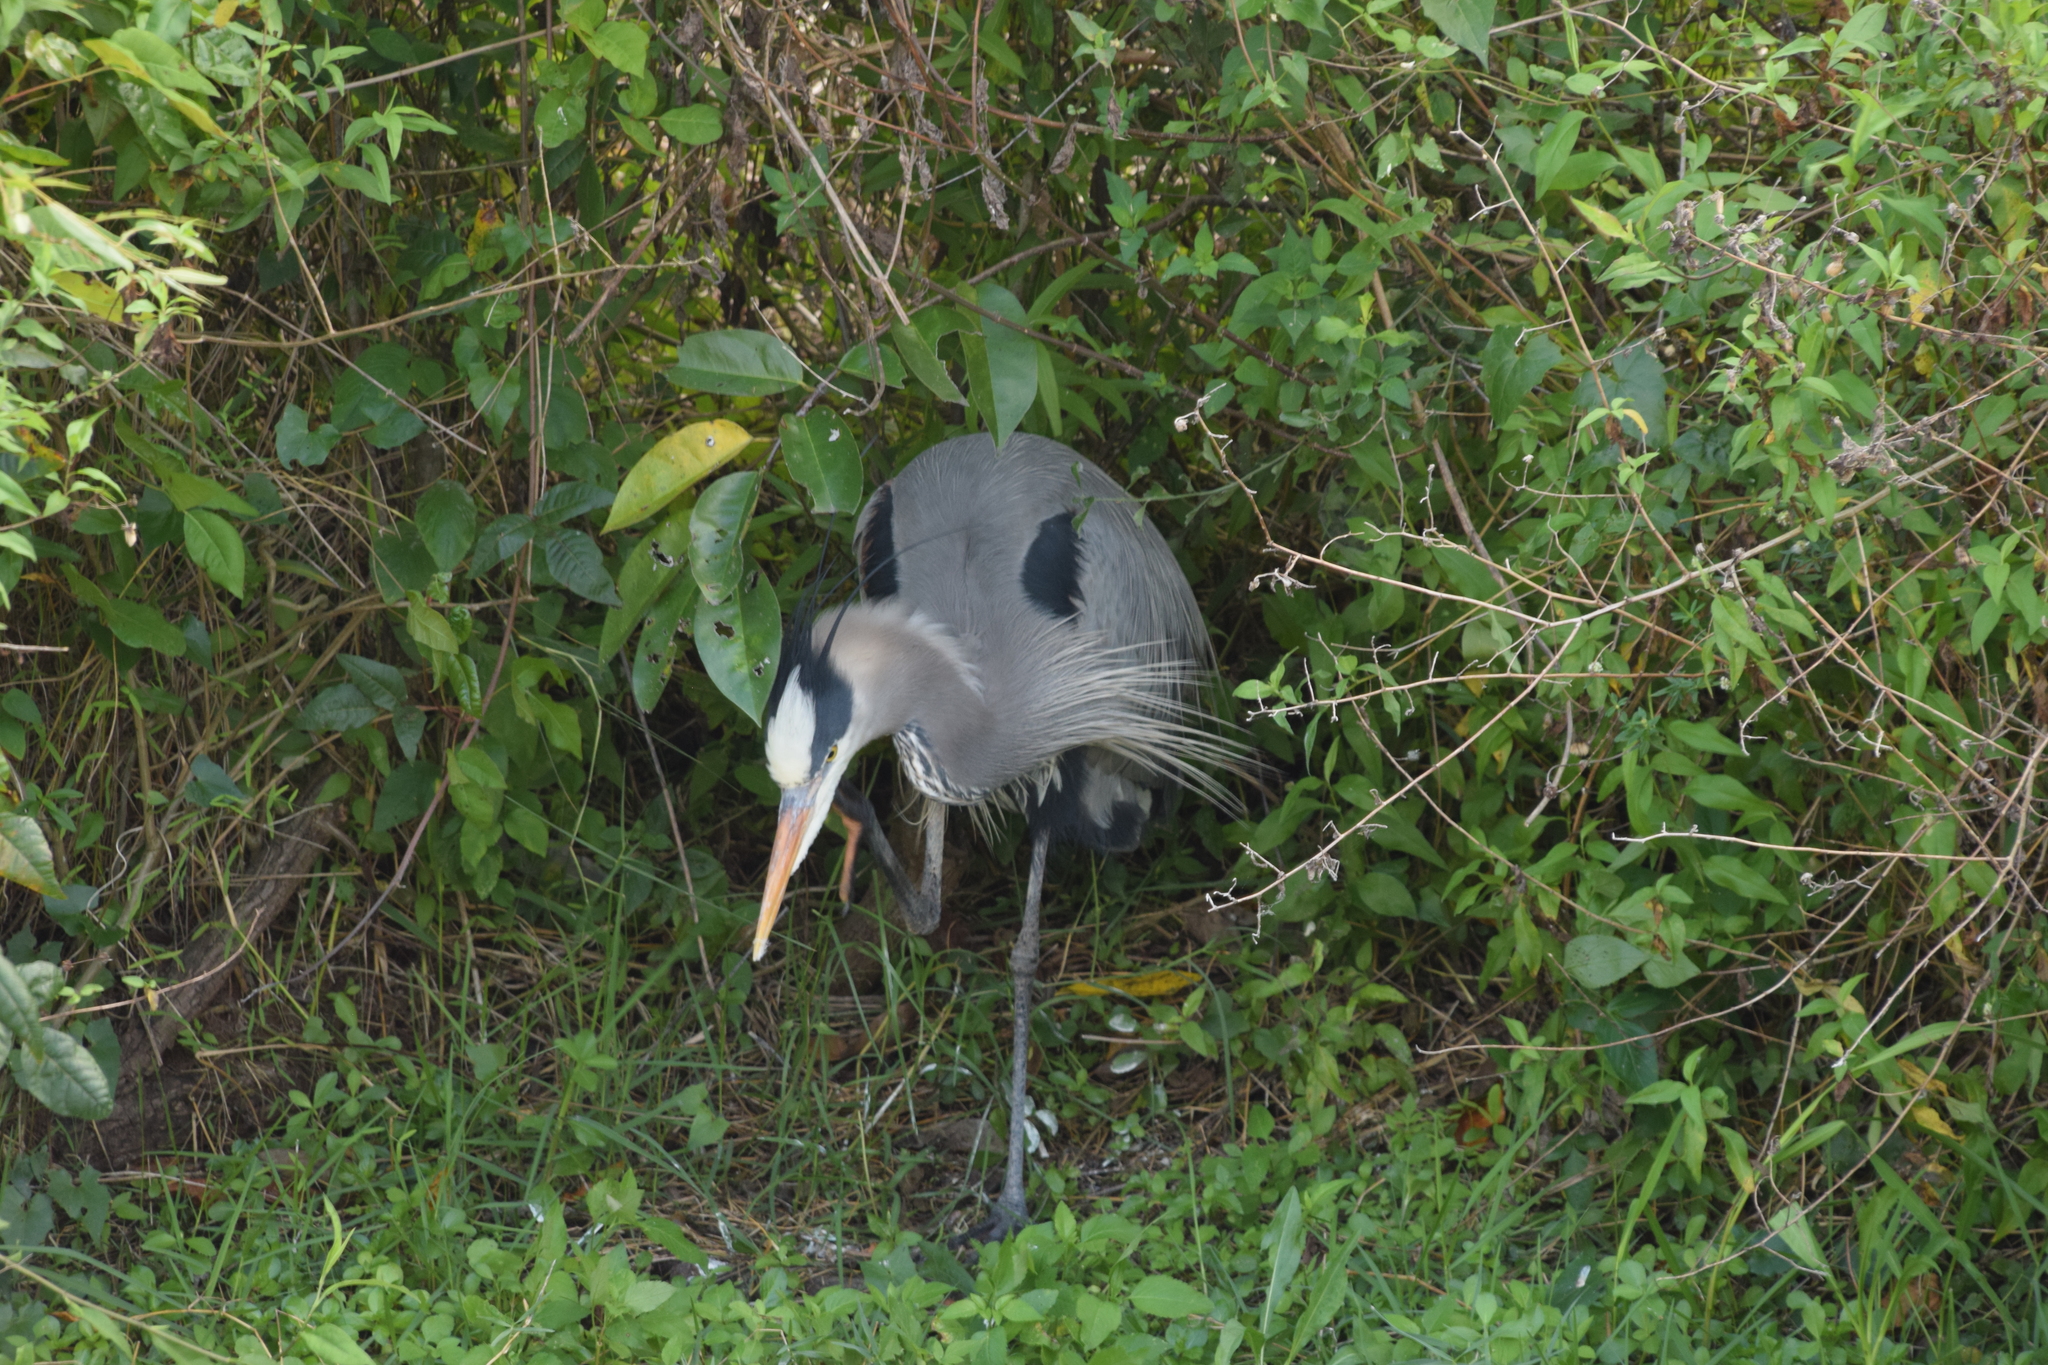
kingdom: Animalia
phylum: Chordata
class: Aves
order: Pelecaniformes
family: Ardeidae
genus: Ardea
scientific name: Ardea herodias
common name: Great blue heron
